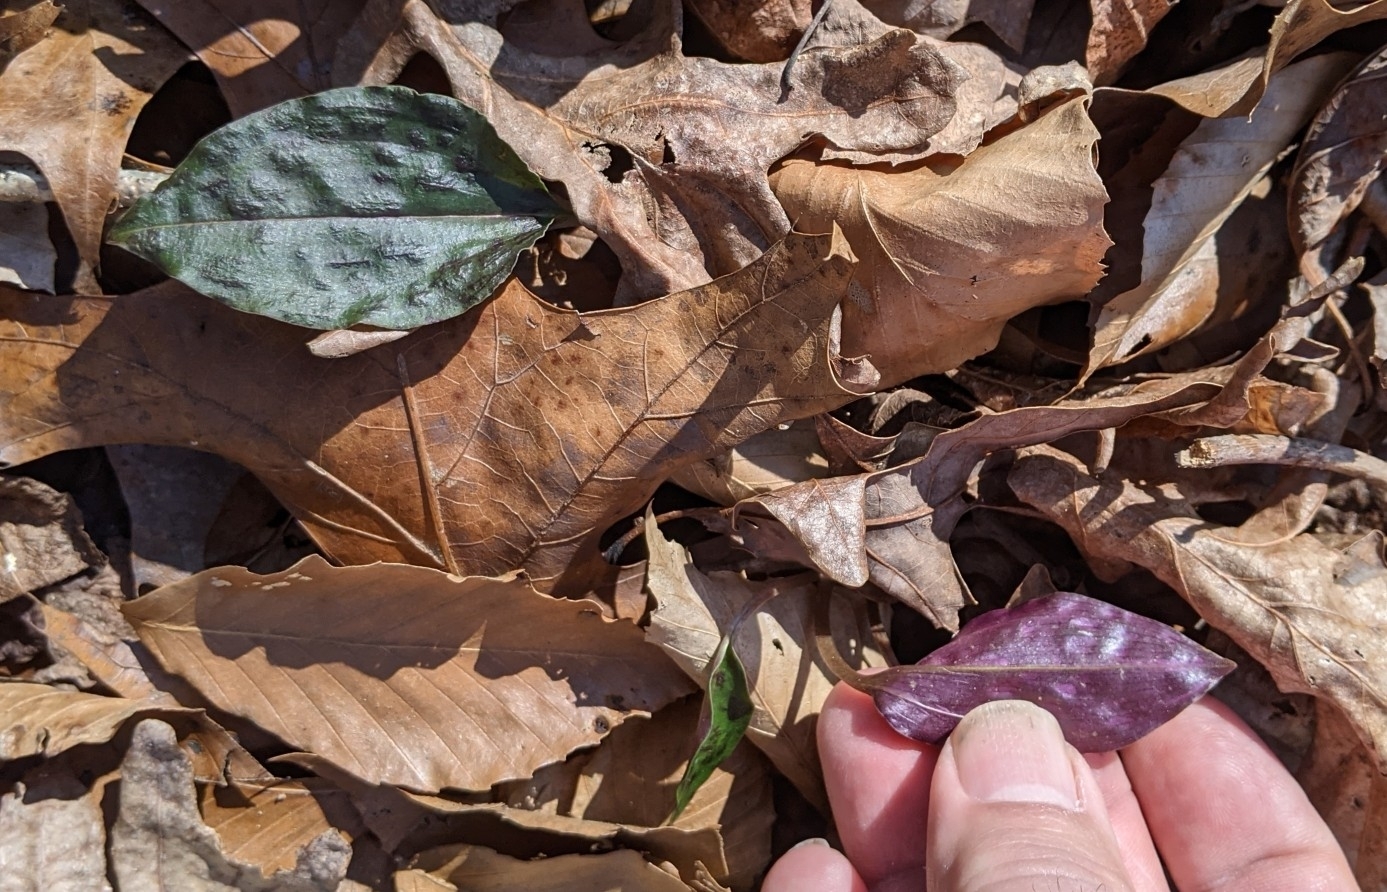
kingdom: Plantae
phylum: Tracheophyta
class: Liliopsida
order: Asparagales
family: Orchidaceae
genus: Tipularia
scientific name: Tipularia discolor
